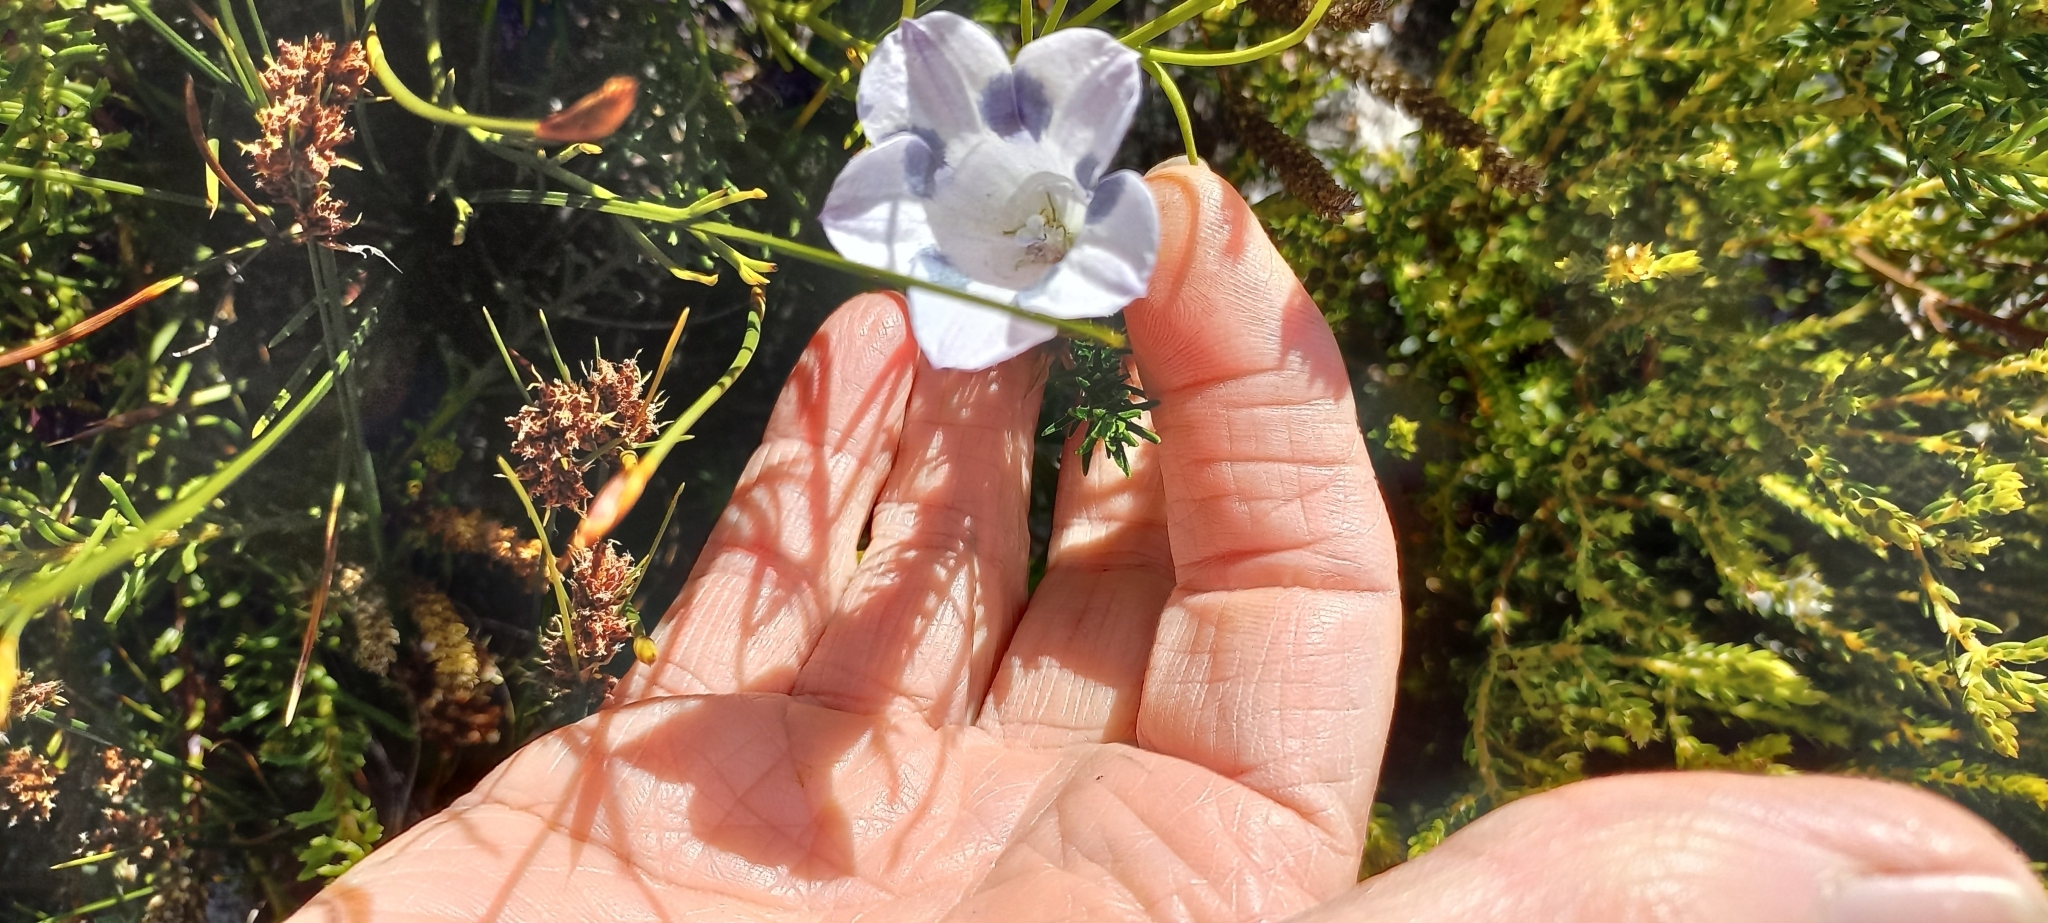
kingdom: Plantae
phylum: Tracheophyta
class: Magnoliopsida
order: Asterales
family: Campanulaceae
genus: Roella
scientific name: Roella maculata
